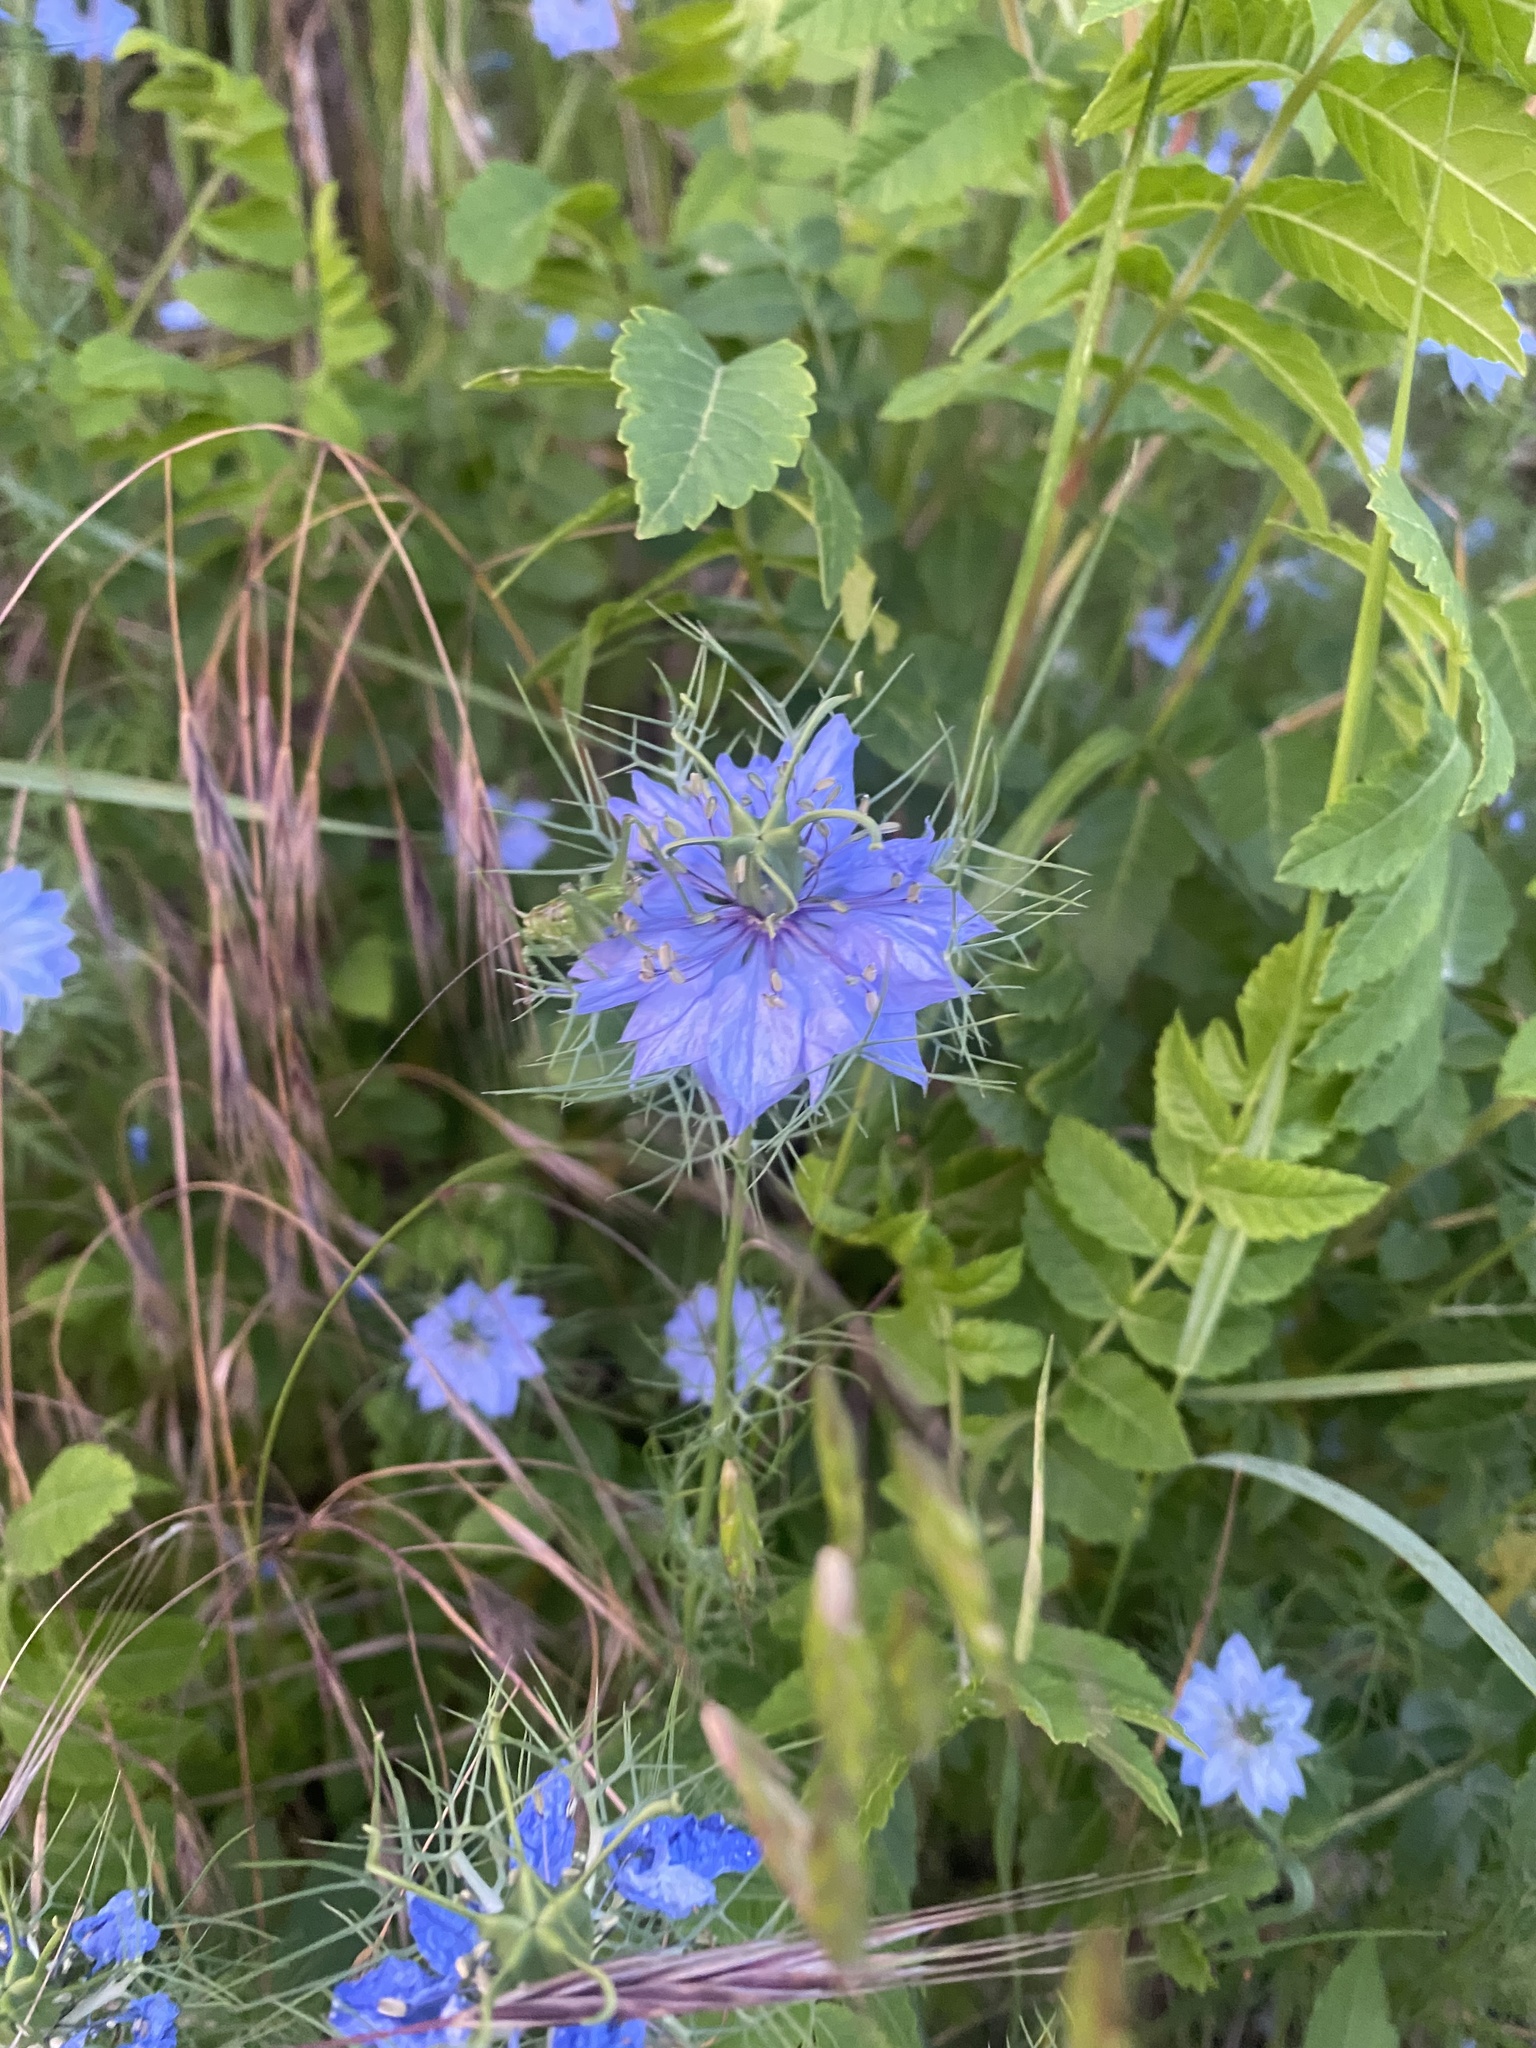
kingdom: Plantae
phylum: Tracheophyta
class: Magnoliopsida
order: Ranunculales
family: Ranunculaceae
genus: Nigella
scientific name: Nigella damascena
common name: Love-in-a-mist
